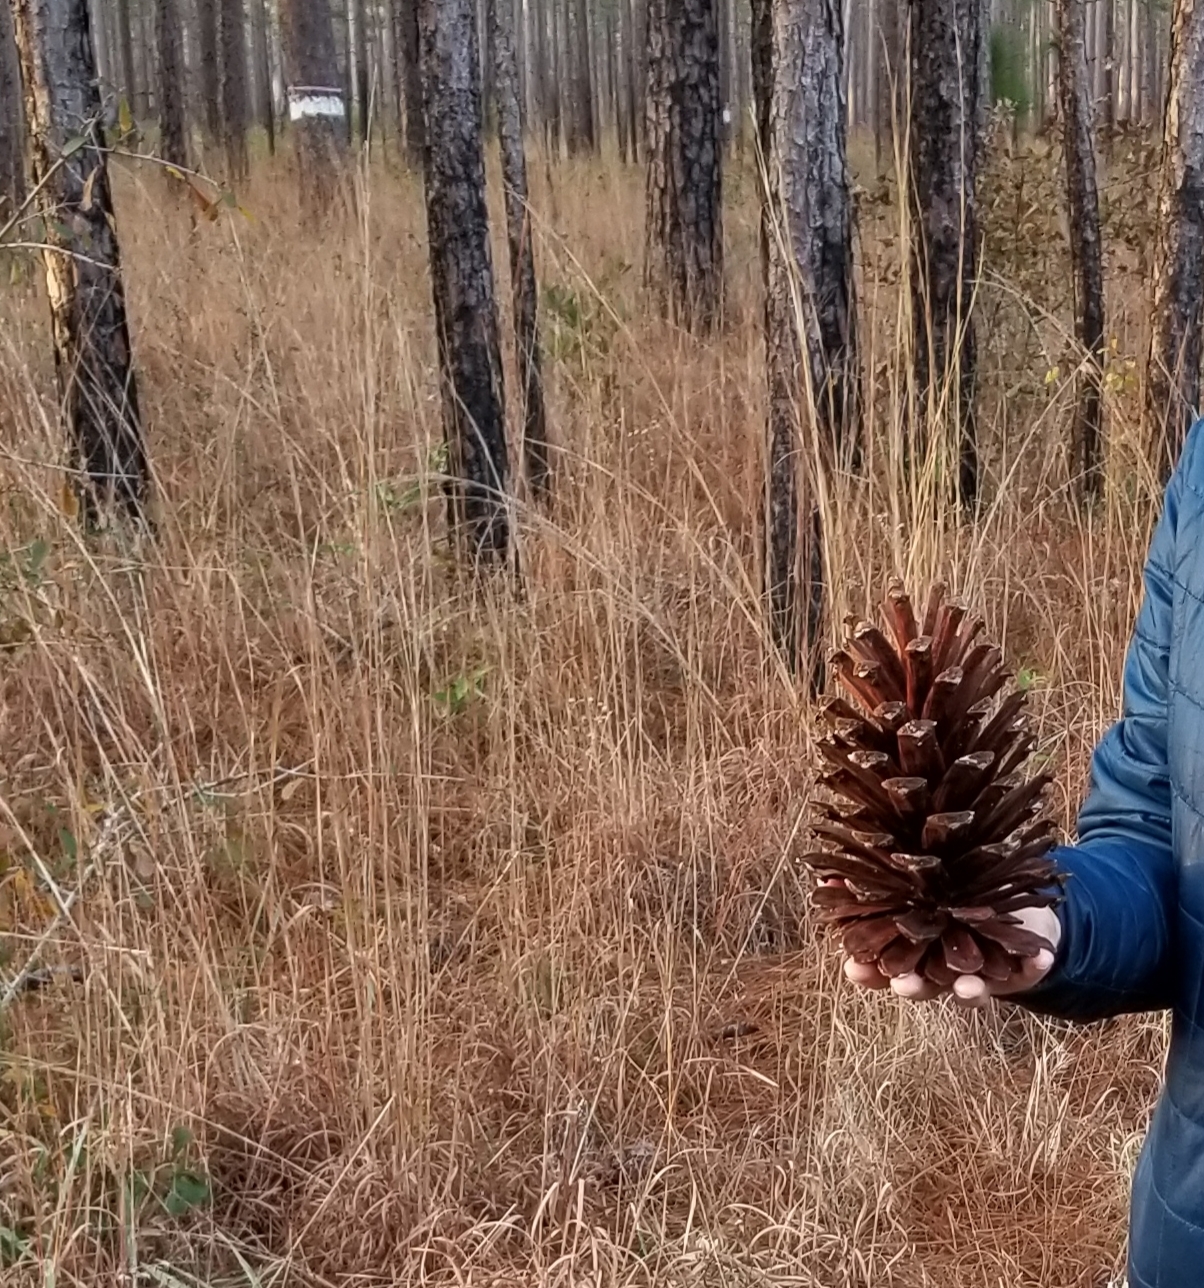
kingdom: Plantae
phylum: Tracheophyta
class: Pinopsida
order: Pinales
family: Pinaceae
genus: Pinus
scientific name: Pinus palustris
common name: Longleaf pine
